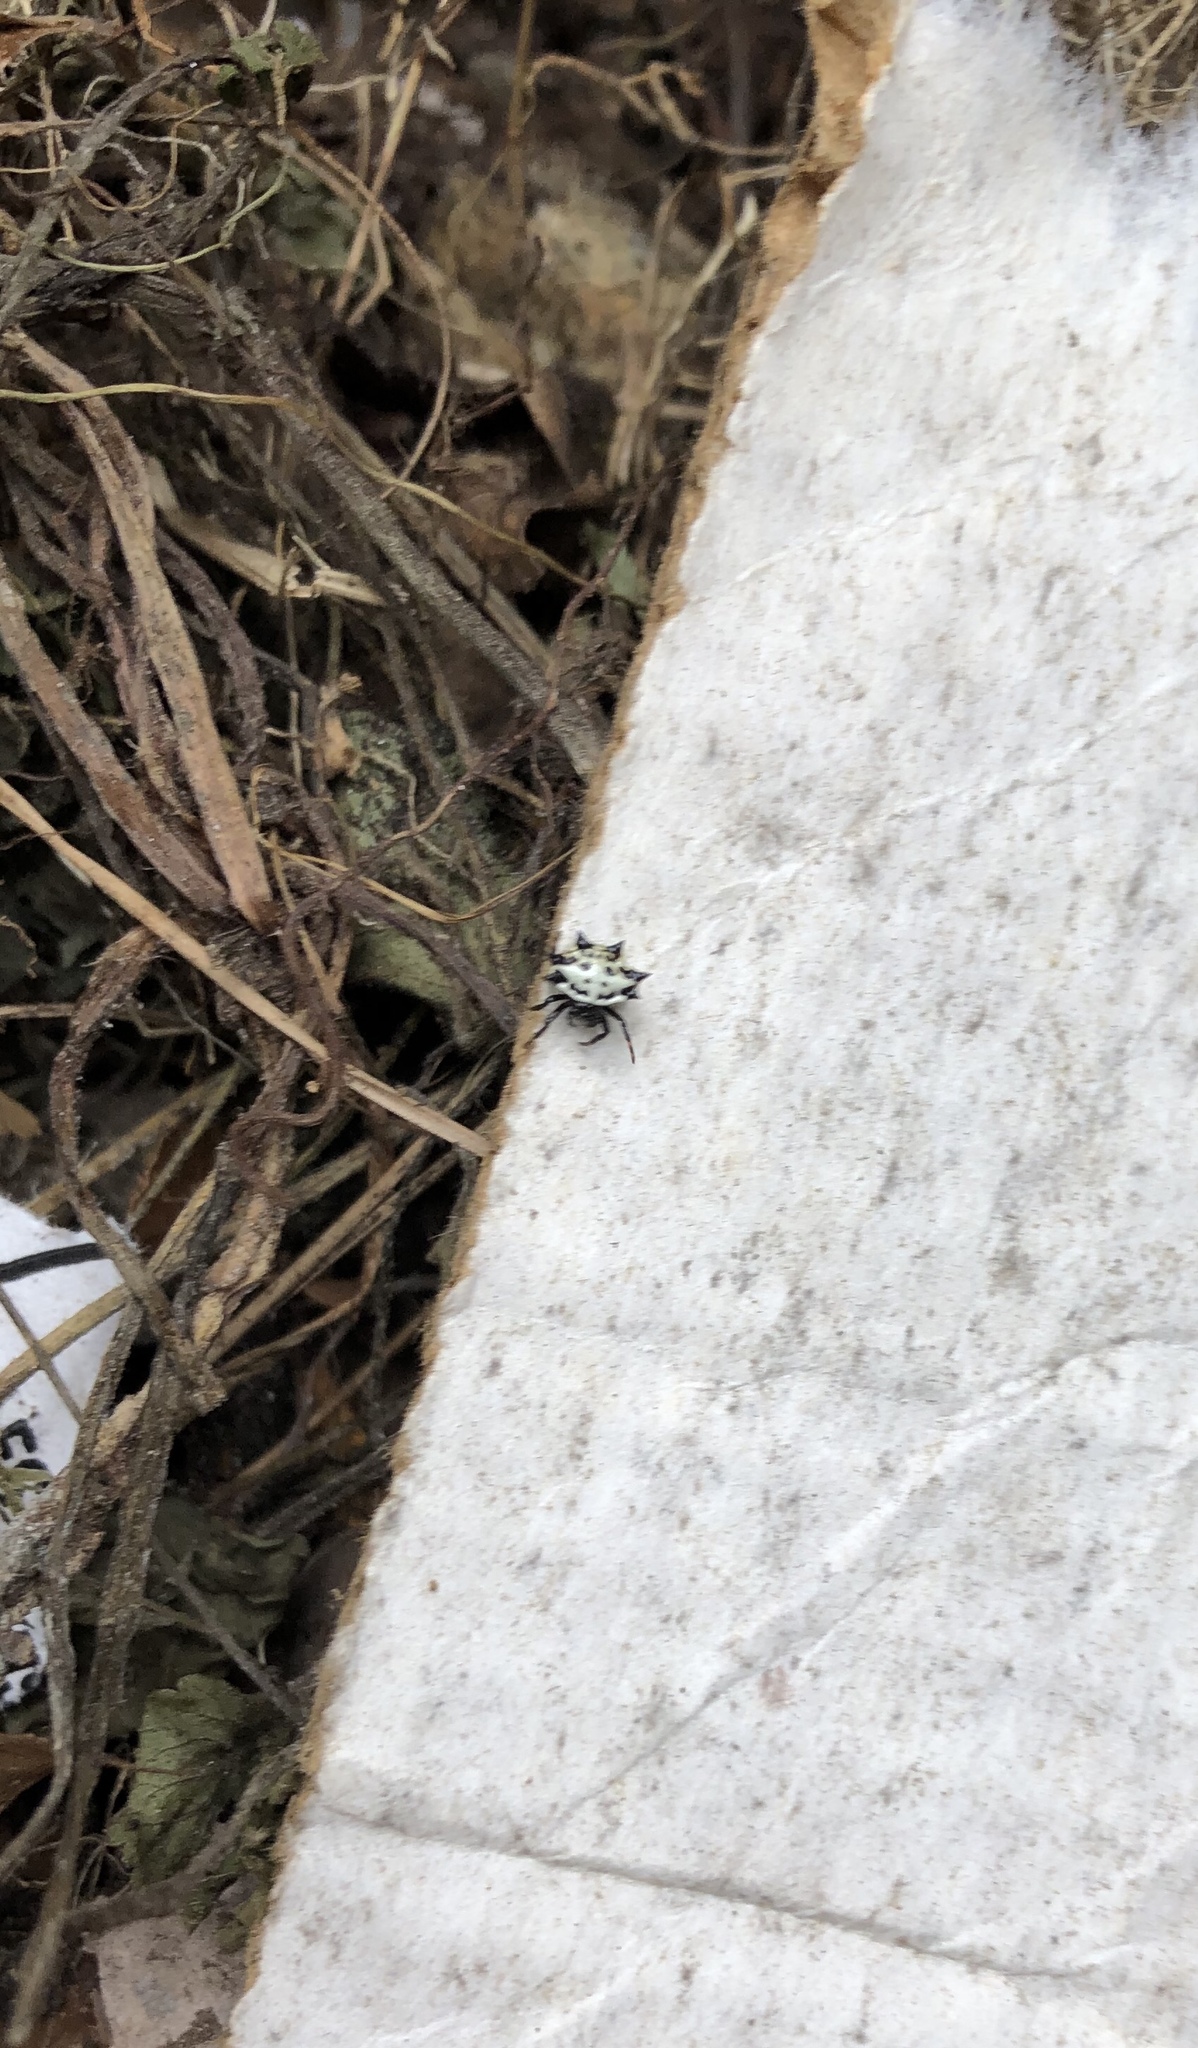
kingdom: Animalia
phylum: Arthropoda
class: Arachnida
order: Araneae
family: Araneidae
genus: Gasteracantha
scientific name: Gasteracantha cancriformis
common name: Orb weavers
